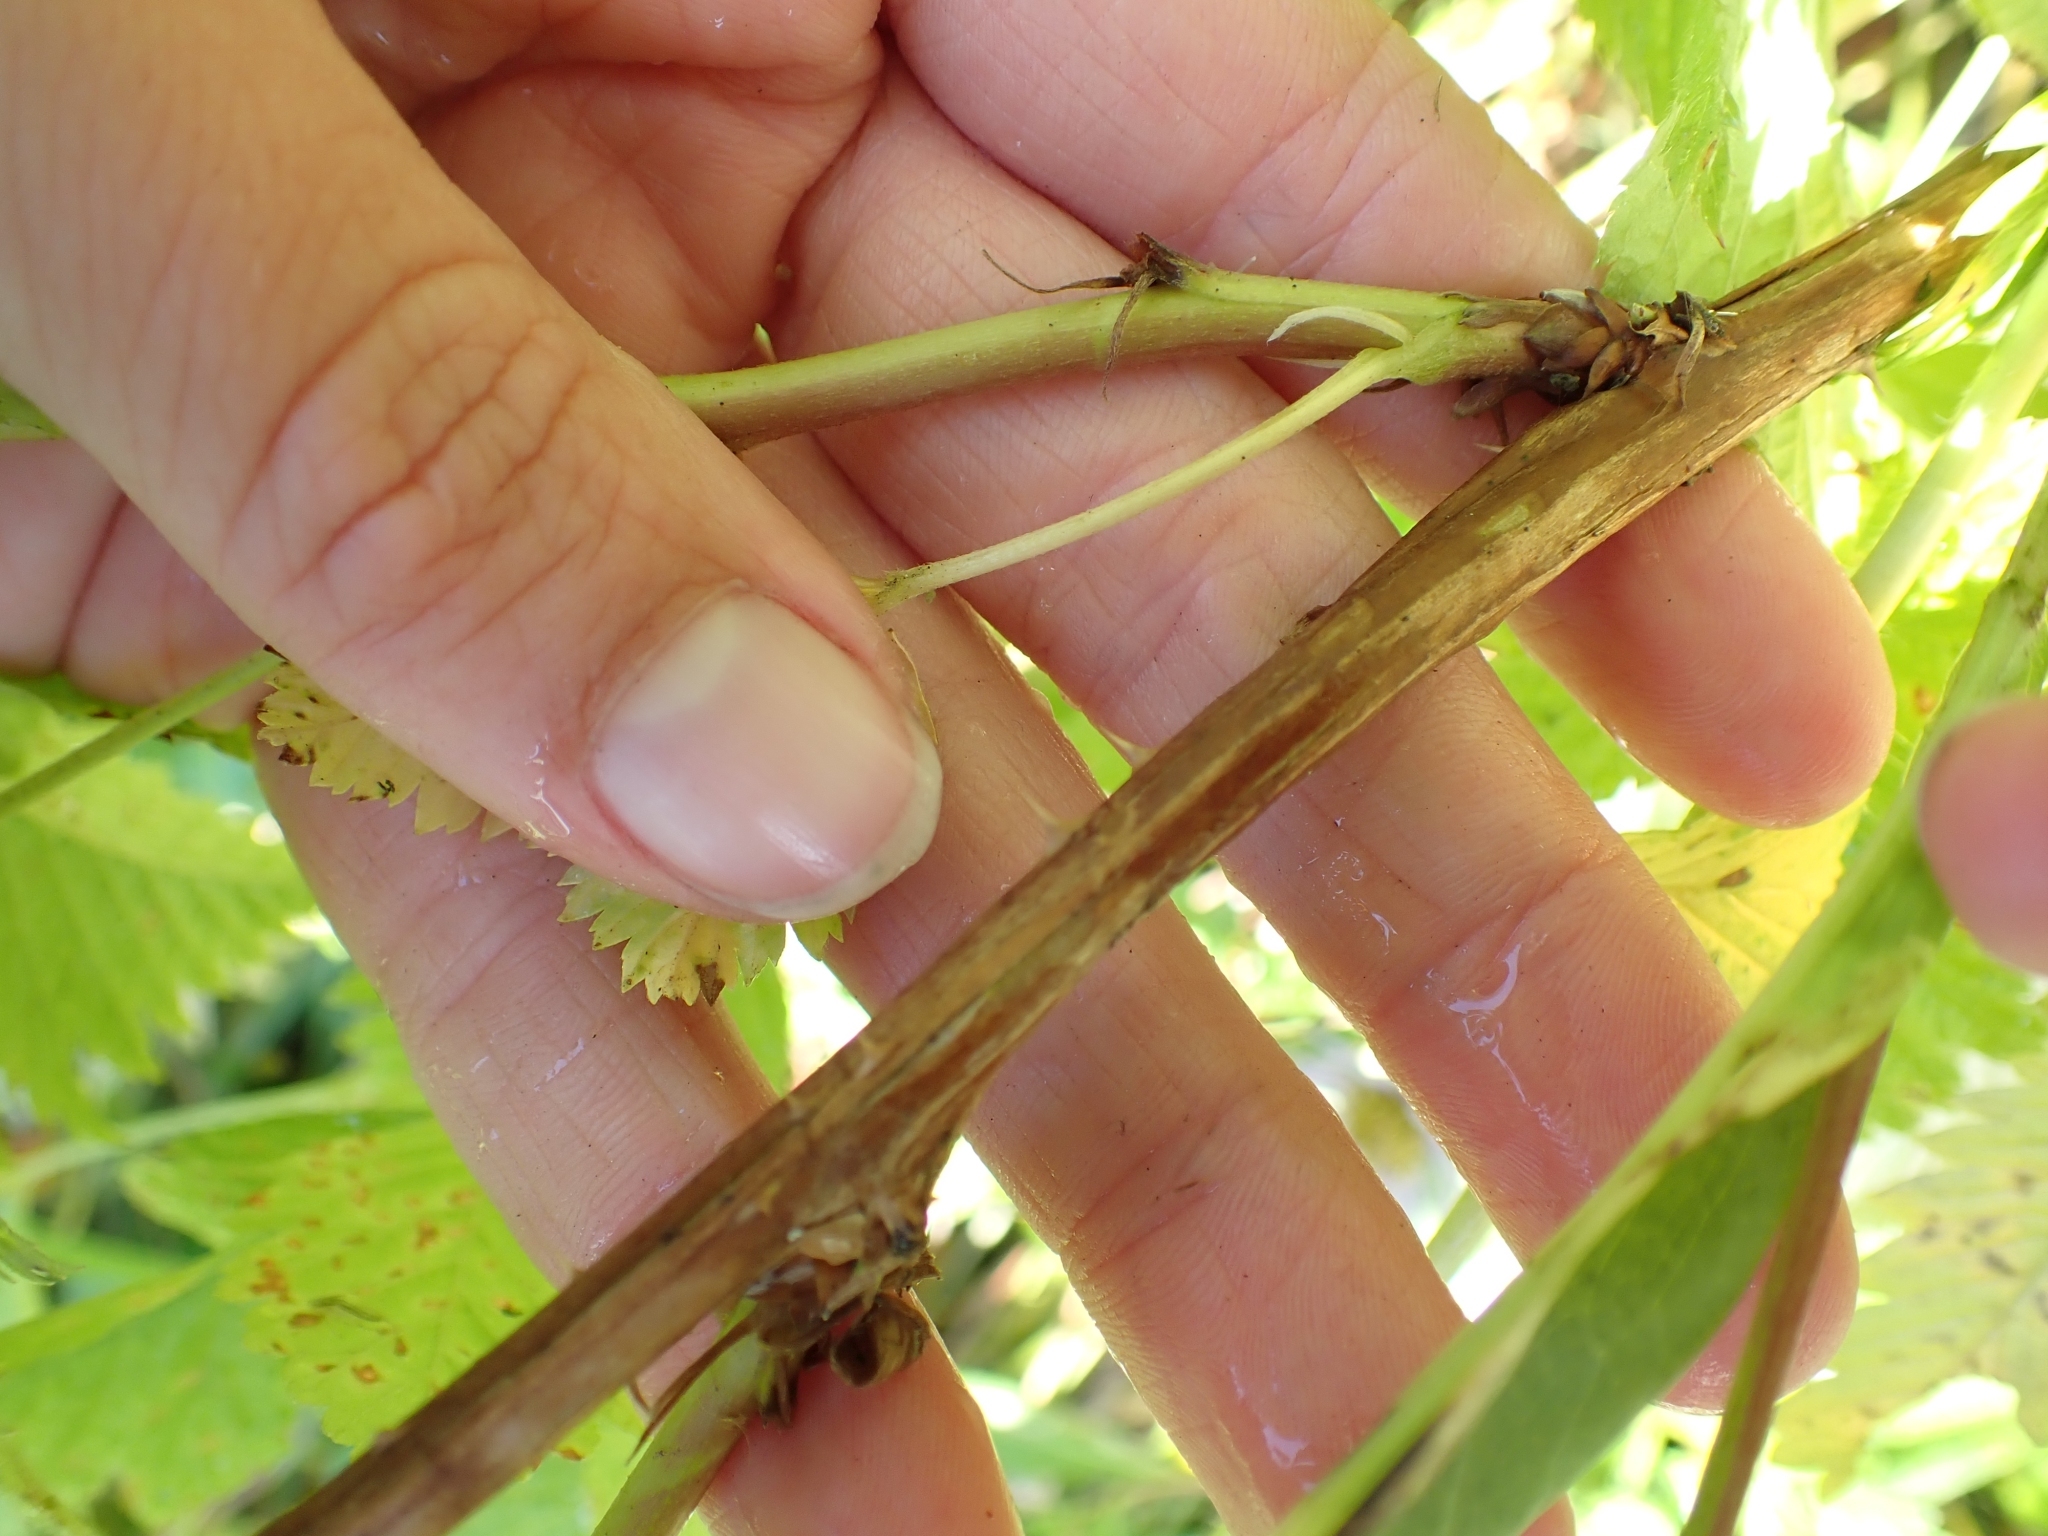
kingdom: Plantae
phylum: Tracheophyta
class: Magnoliopsida
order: Rosales
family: Rosaceae
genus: Rubus
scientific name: Rubus spectabilis
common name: Salmonberry
